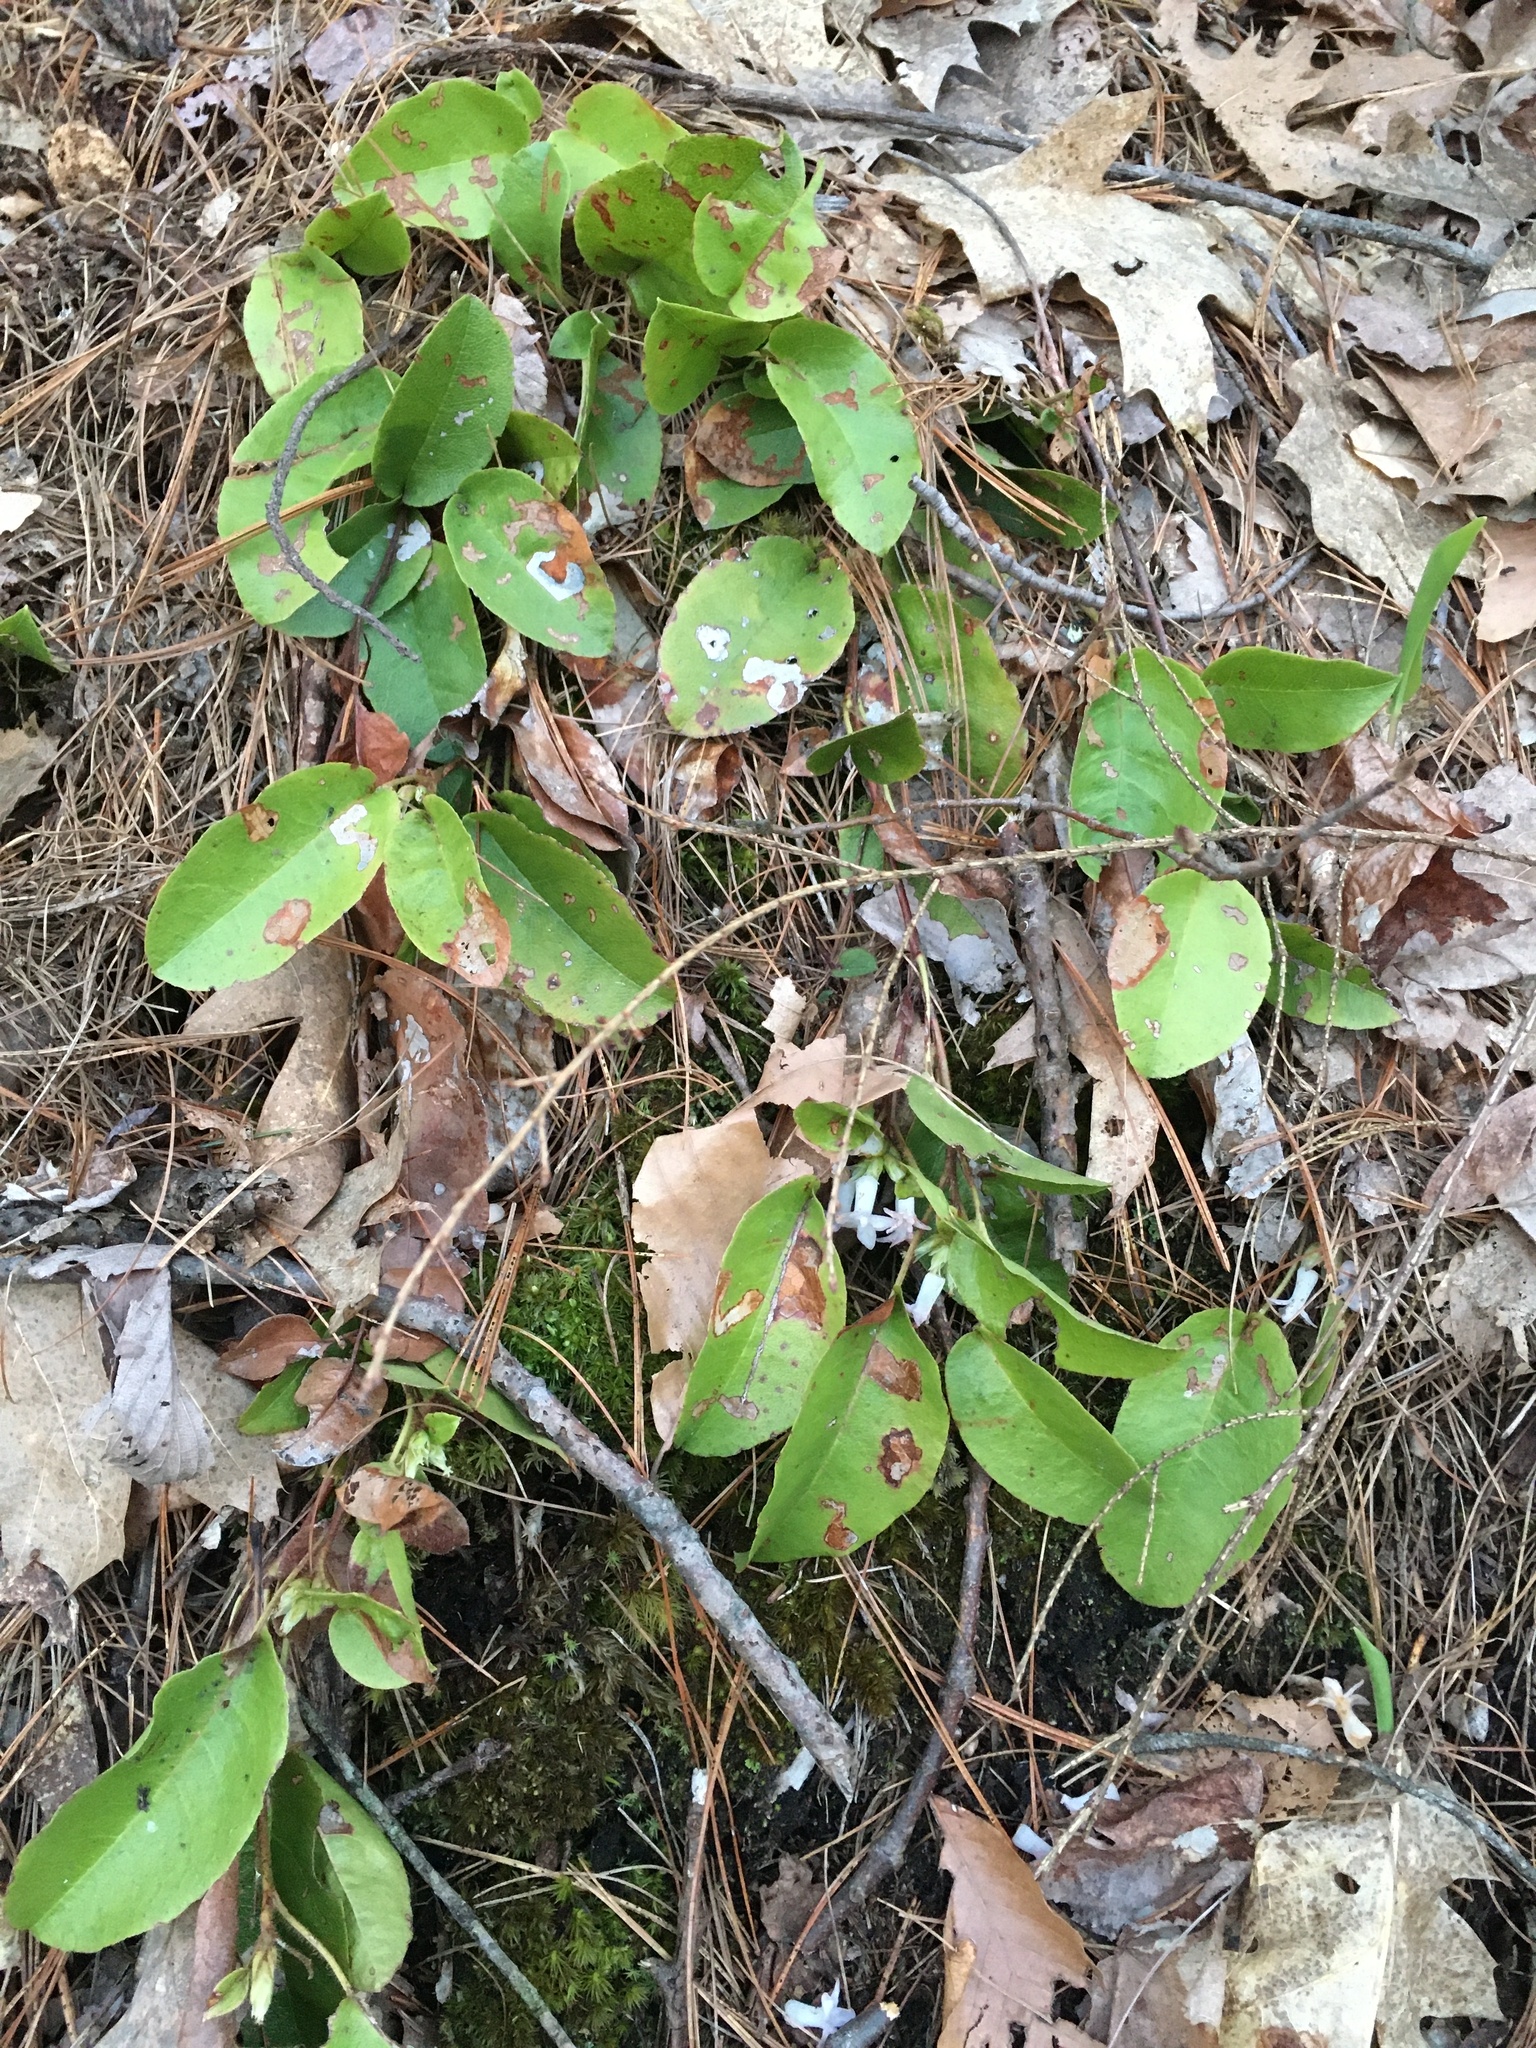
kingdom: Plantae
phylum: Tracheophyta
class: Magnoliopsida
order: Ericales
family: Ericaceae
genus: Epigaea
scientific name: Epigaea repens
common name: Gravelroot
